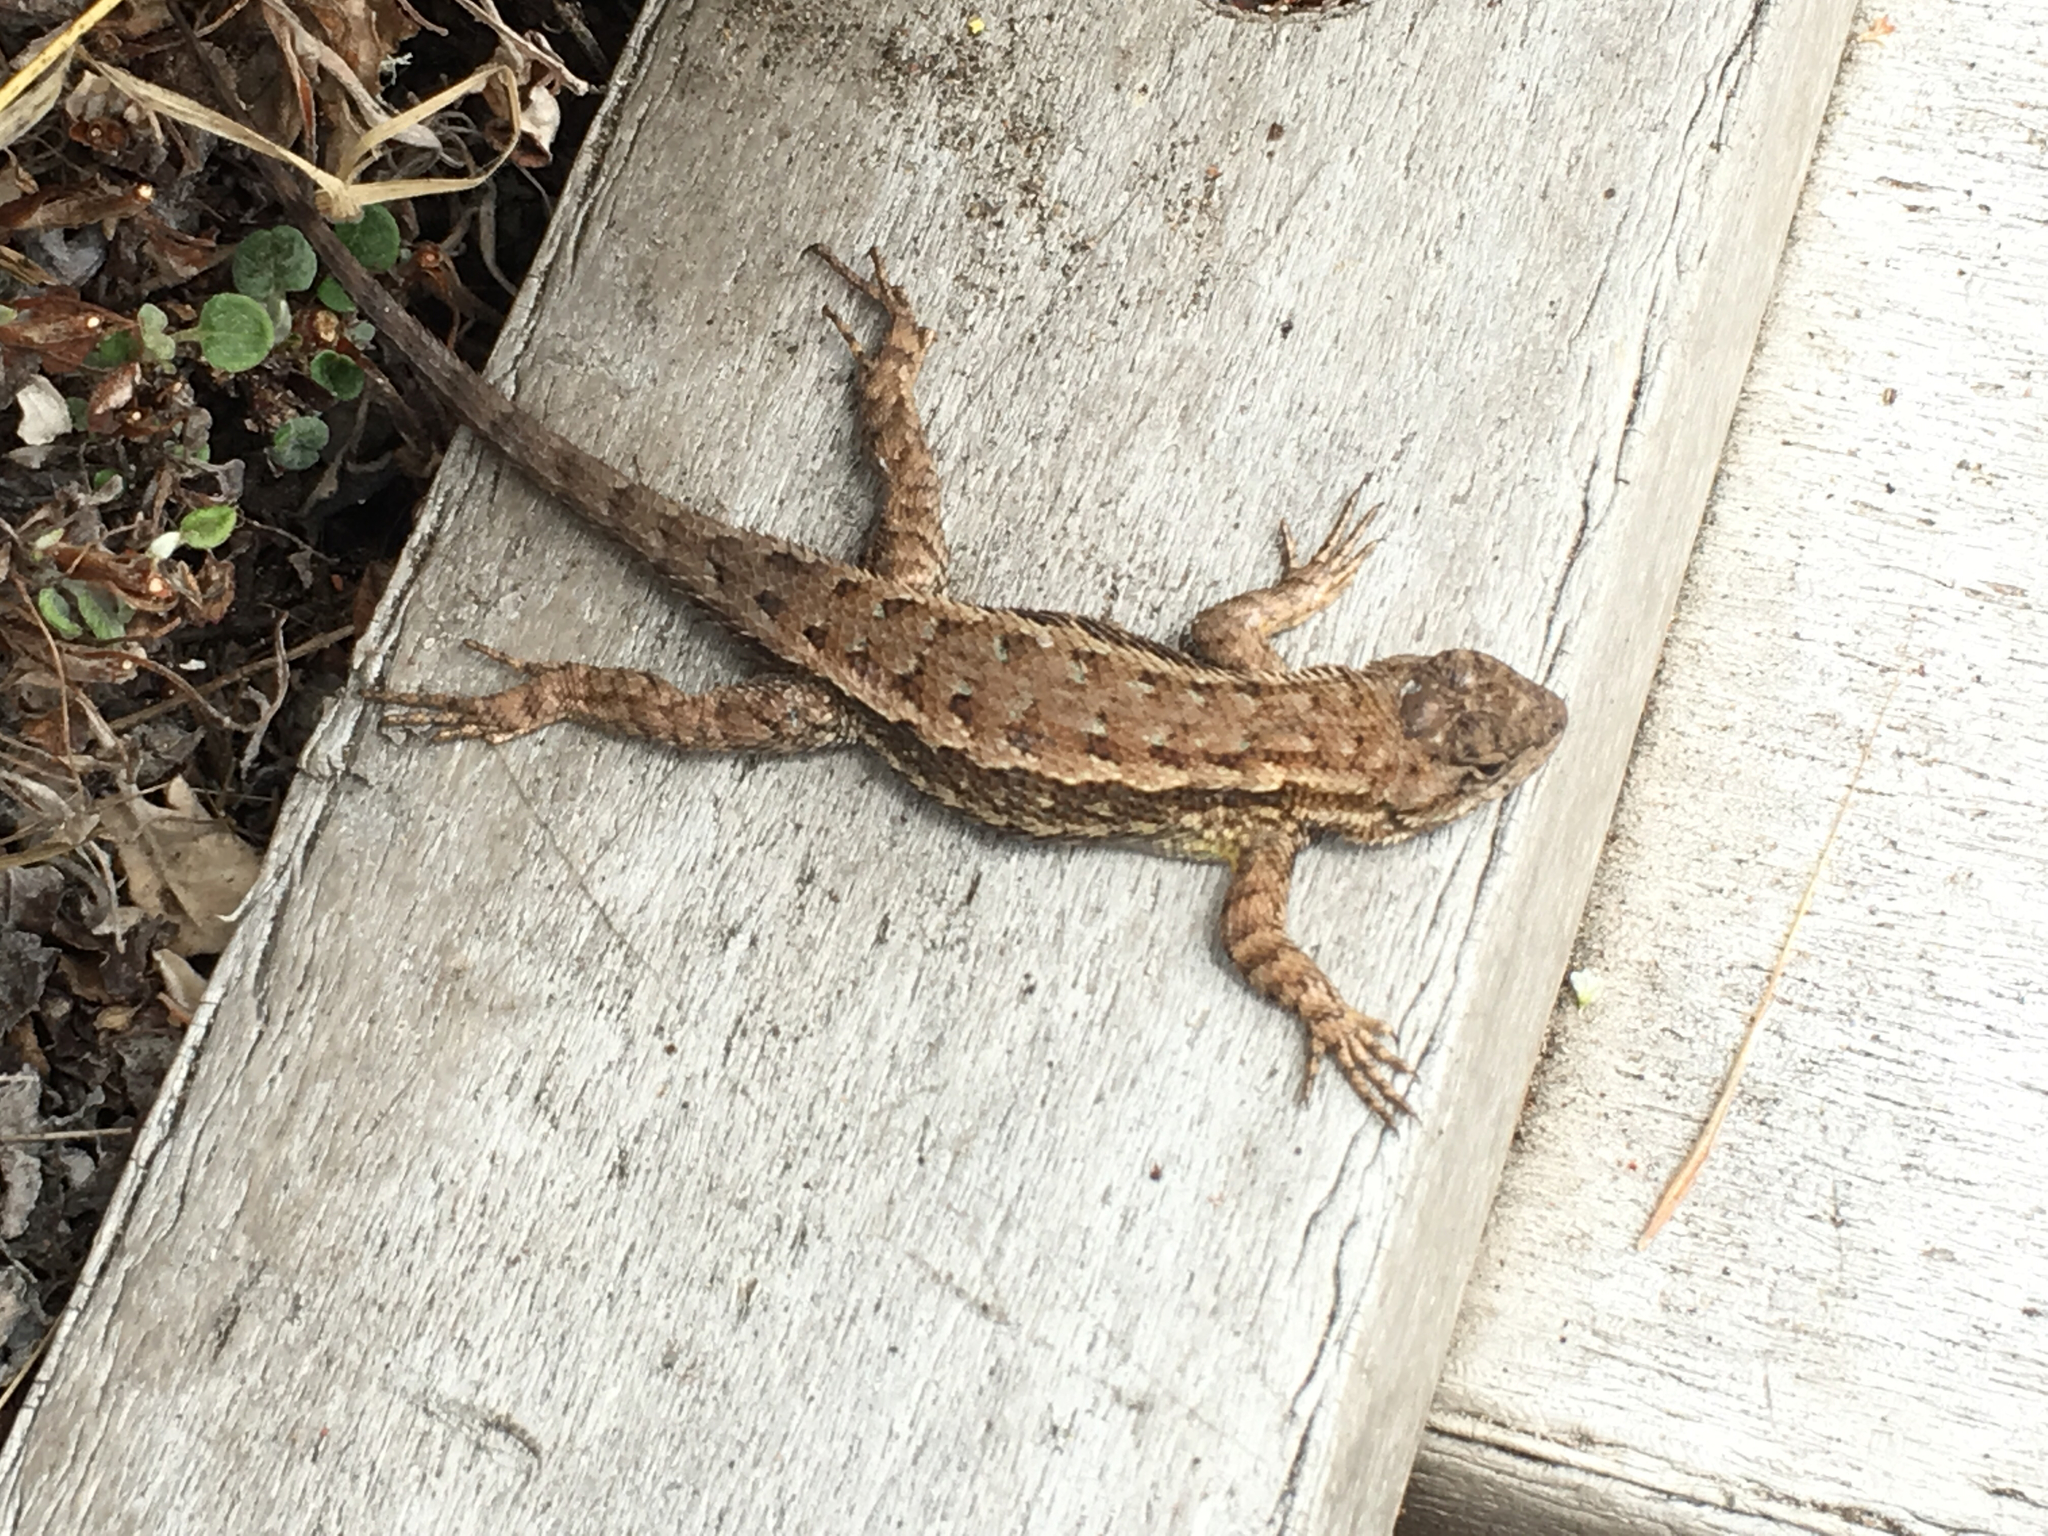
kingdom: Animalia
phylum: Chordata
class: Squamata
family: Phrynosomatidae
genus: Sceloporus
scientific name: Sceloporus occidentalis
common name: Western fence lizard
